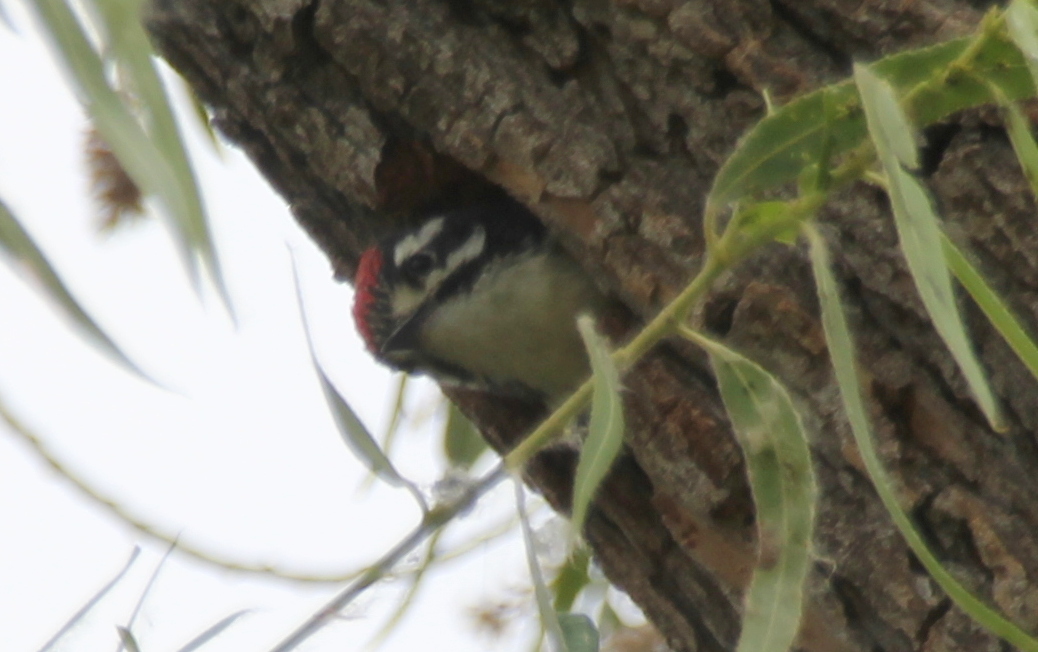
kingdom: Animalia
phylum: Chordata
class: Aves
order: Piciformes
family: Picidae
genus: Dryobates
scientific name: Dryobates nuttallii
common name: Nuttall's woodpecker
